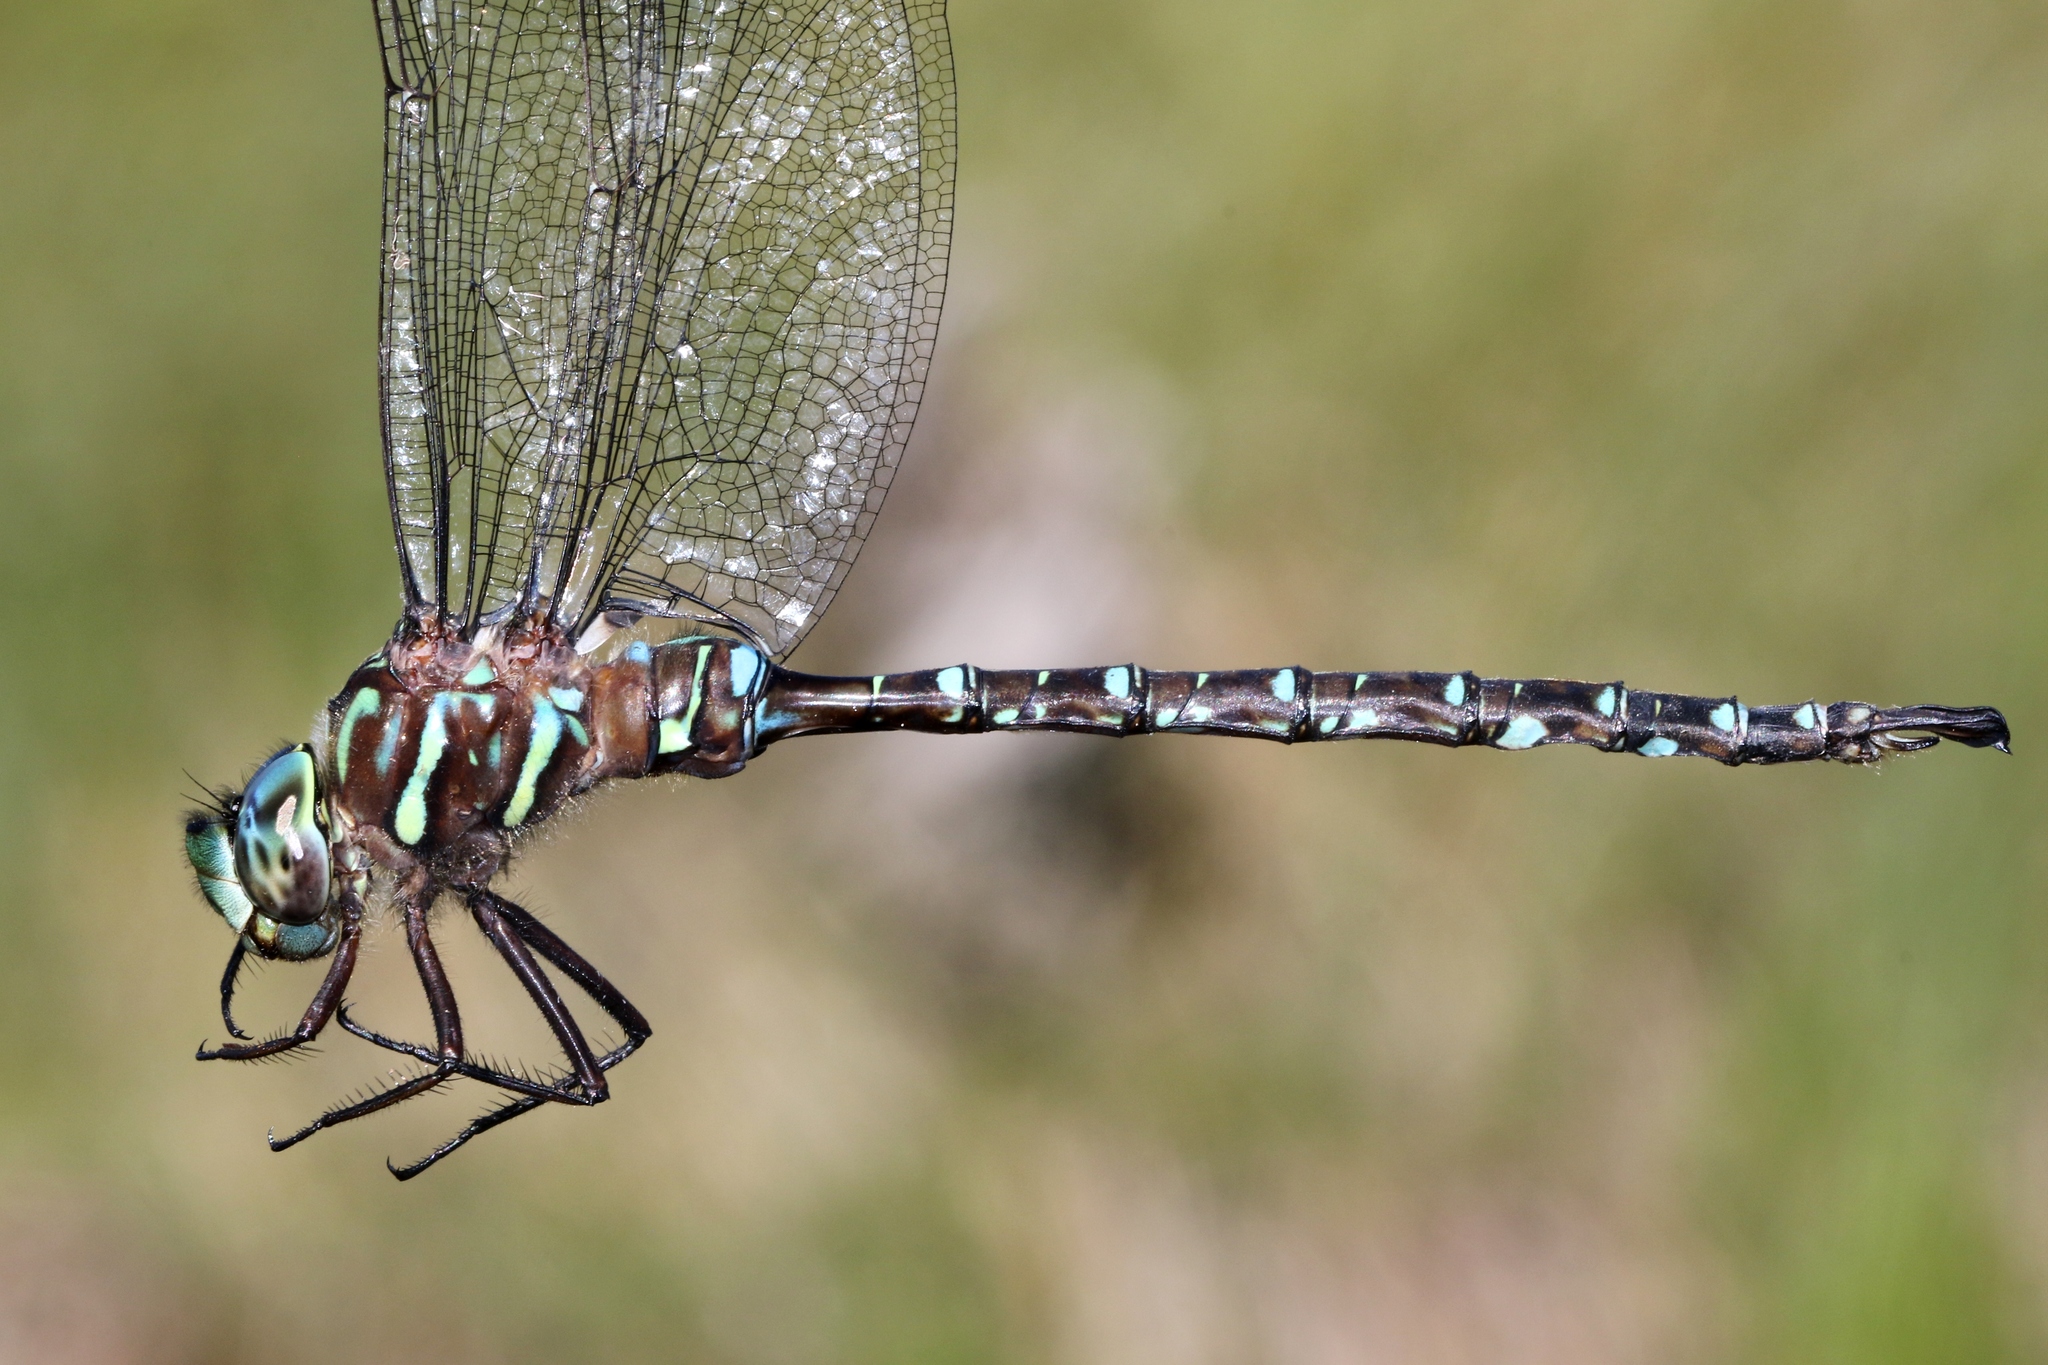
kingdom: Animalia
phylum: Arthropoda
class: Insecta
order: Odonata
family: Aeshnidae
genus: Aeshna
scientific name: Aeshna umbrosa
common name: Shadow darner
